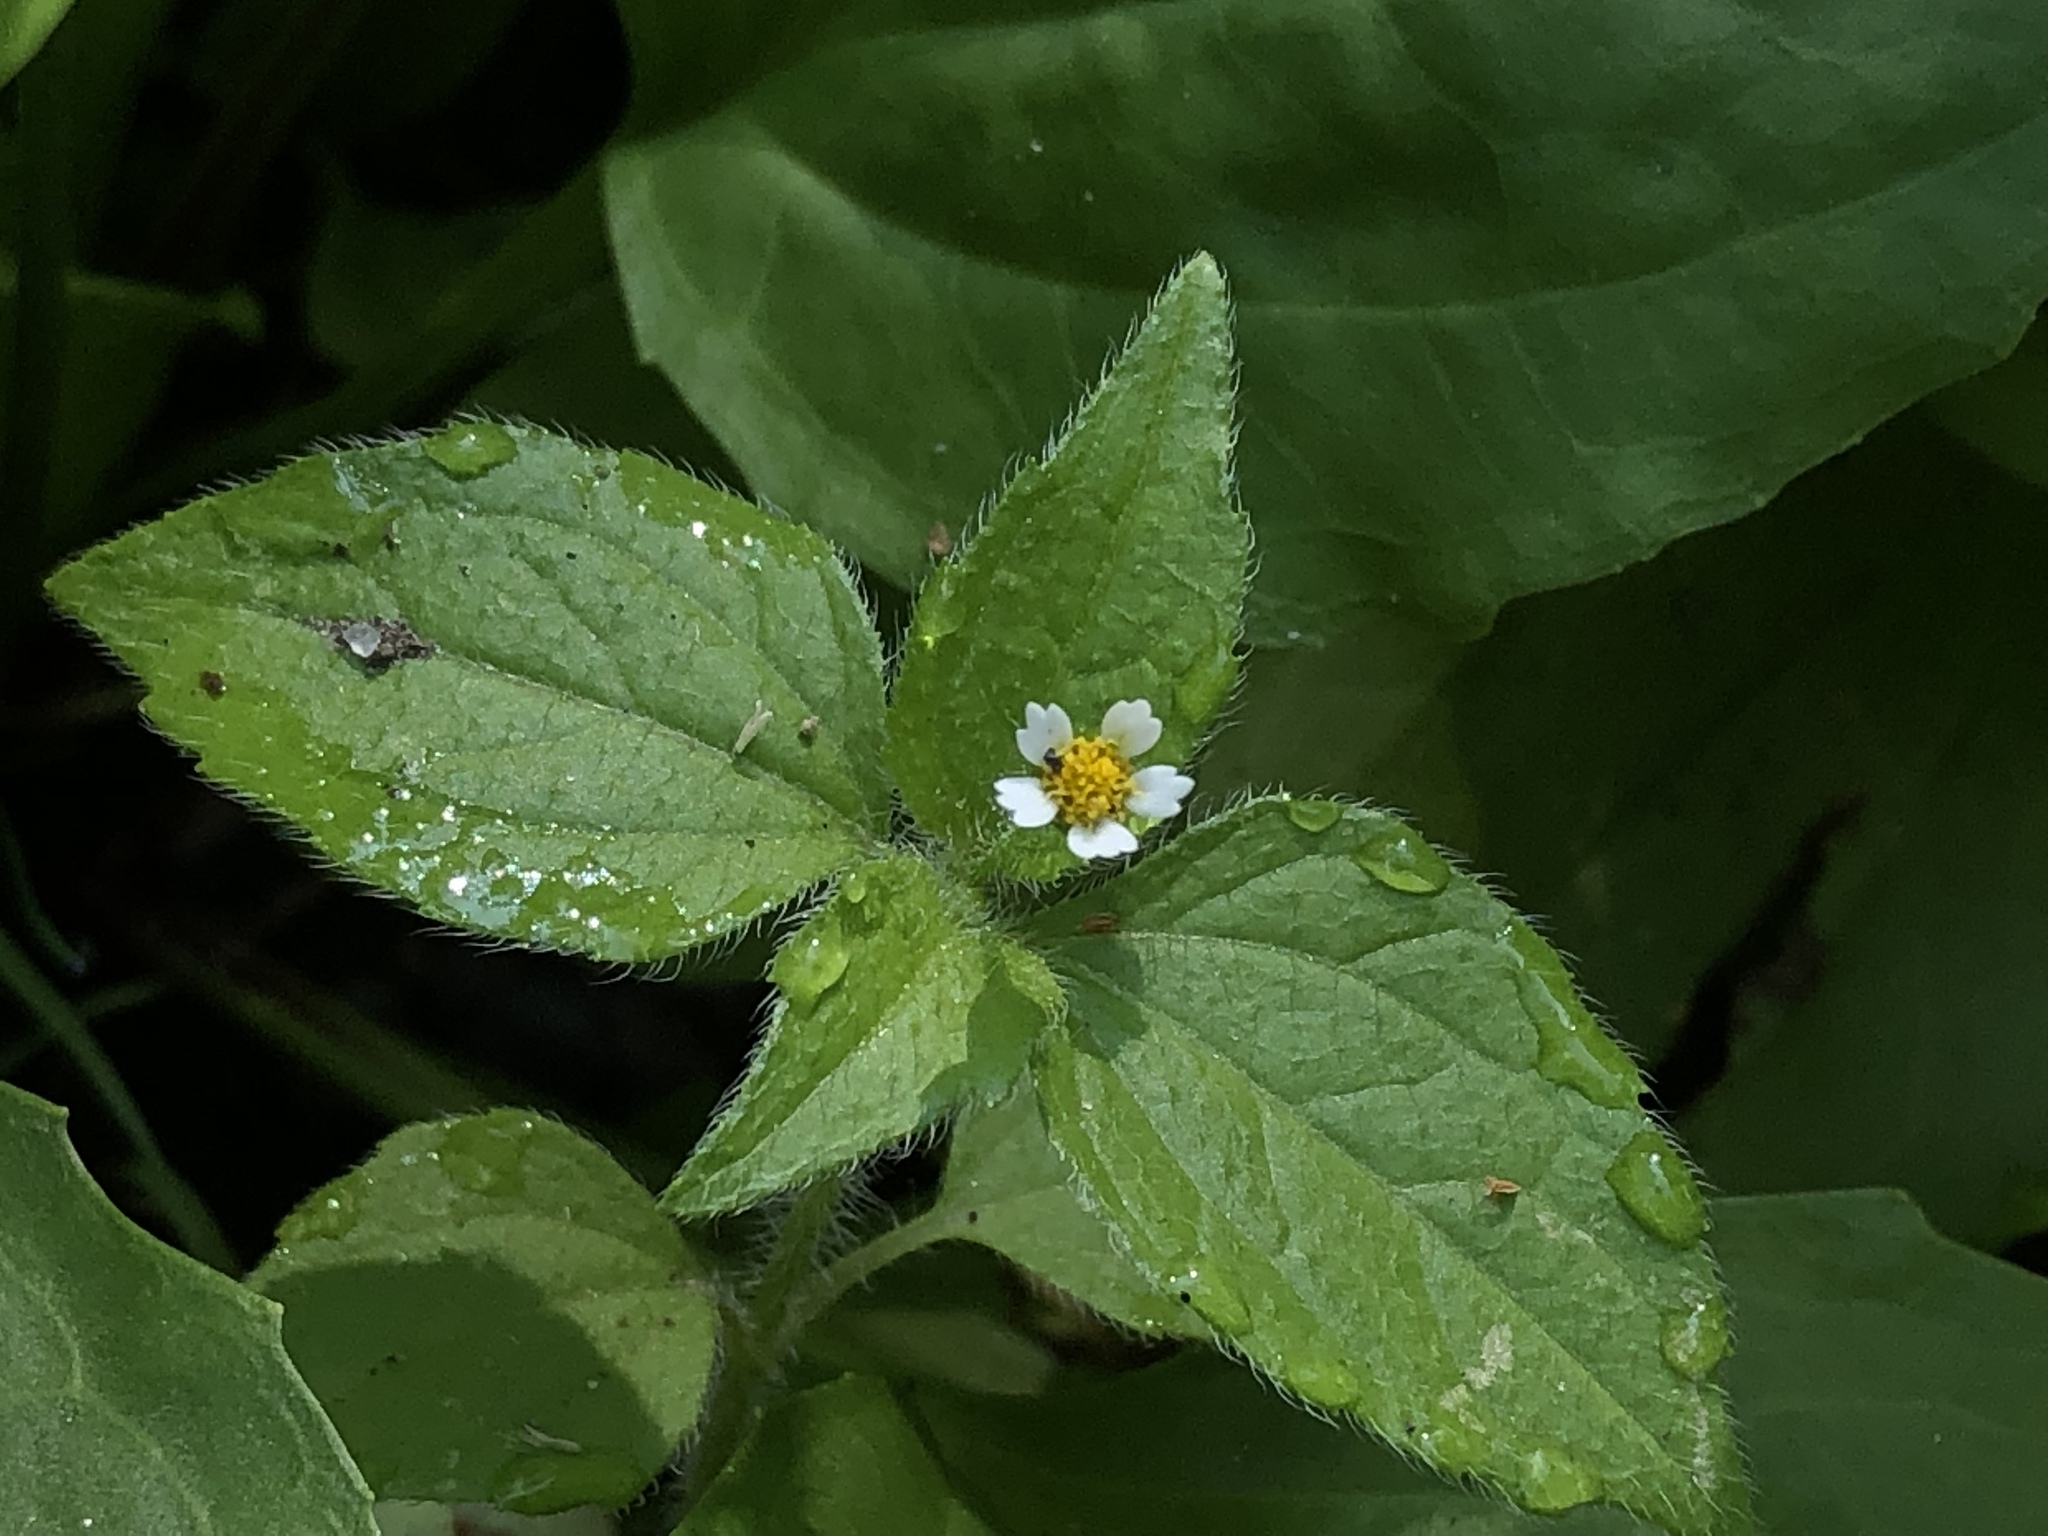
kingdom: Plantae
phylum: Tracheophyta
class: Magnoliopsida
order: Asterales
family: Asteraceae
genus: Galinsoga
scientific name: Galinsoga quadriradiata
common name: Shaggy soldier
